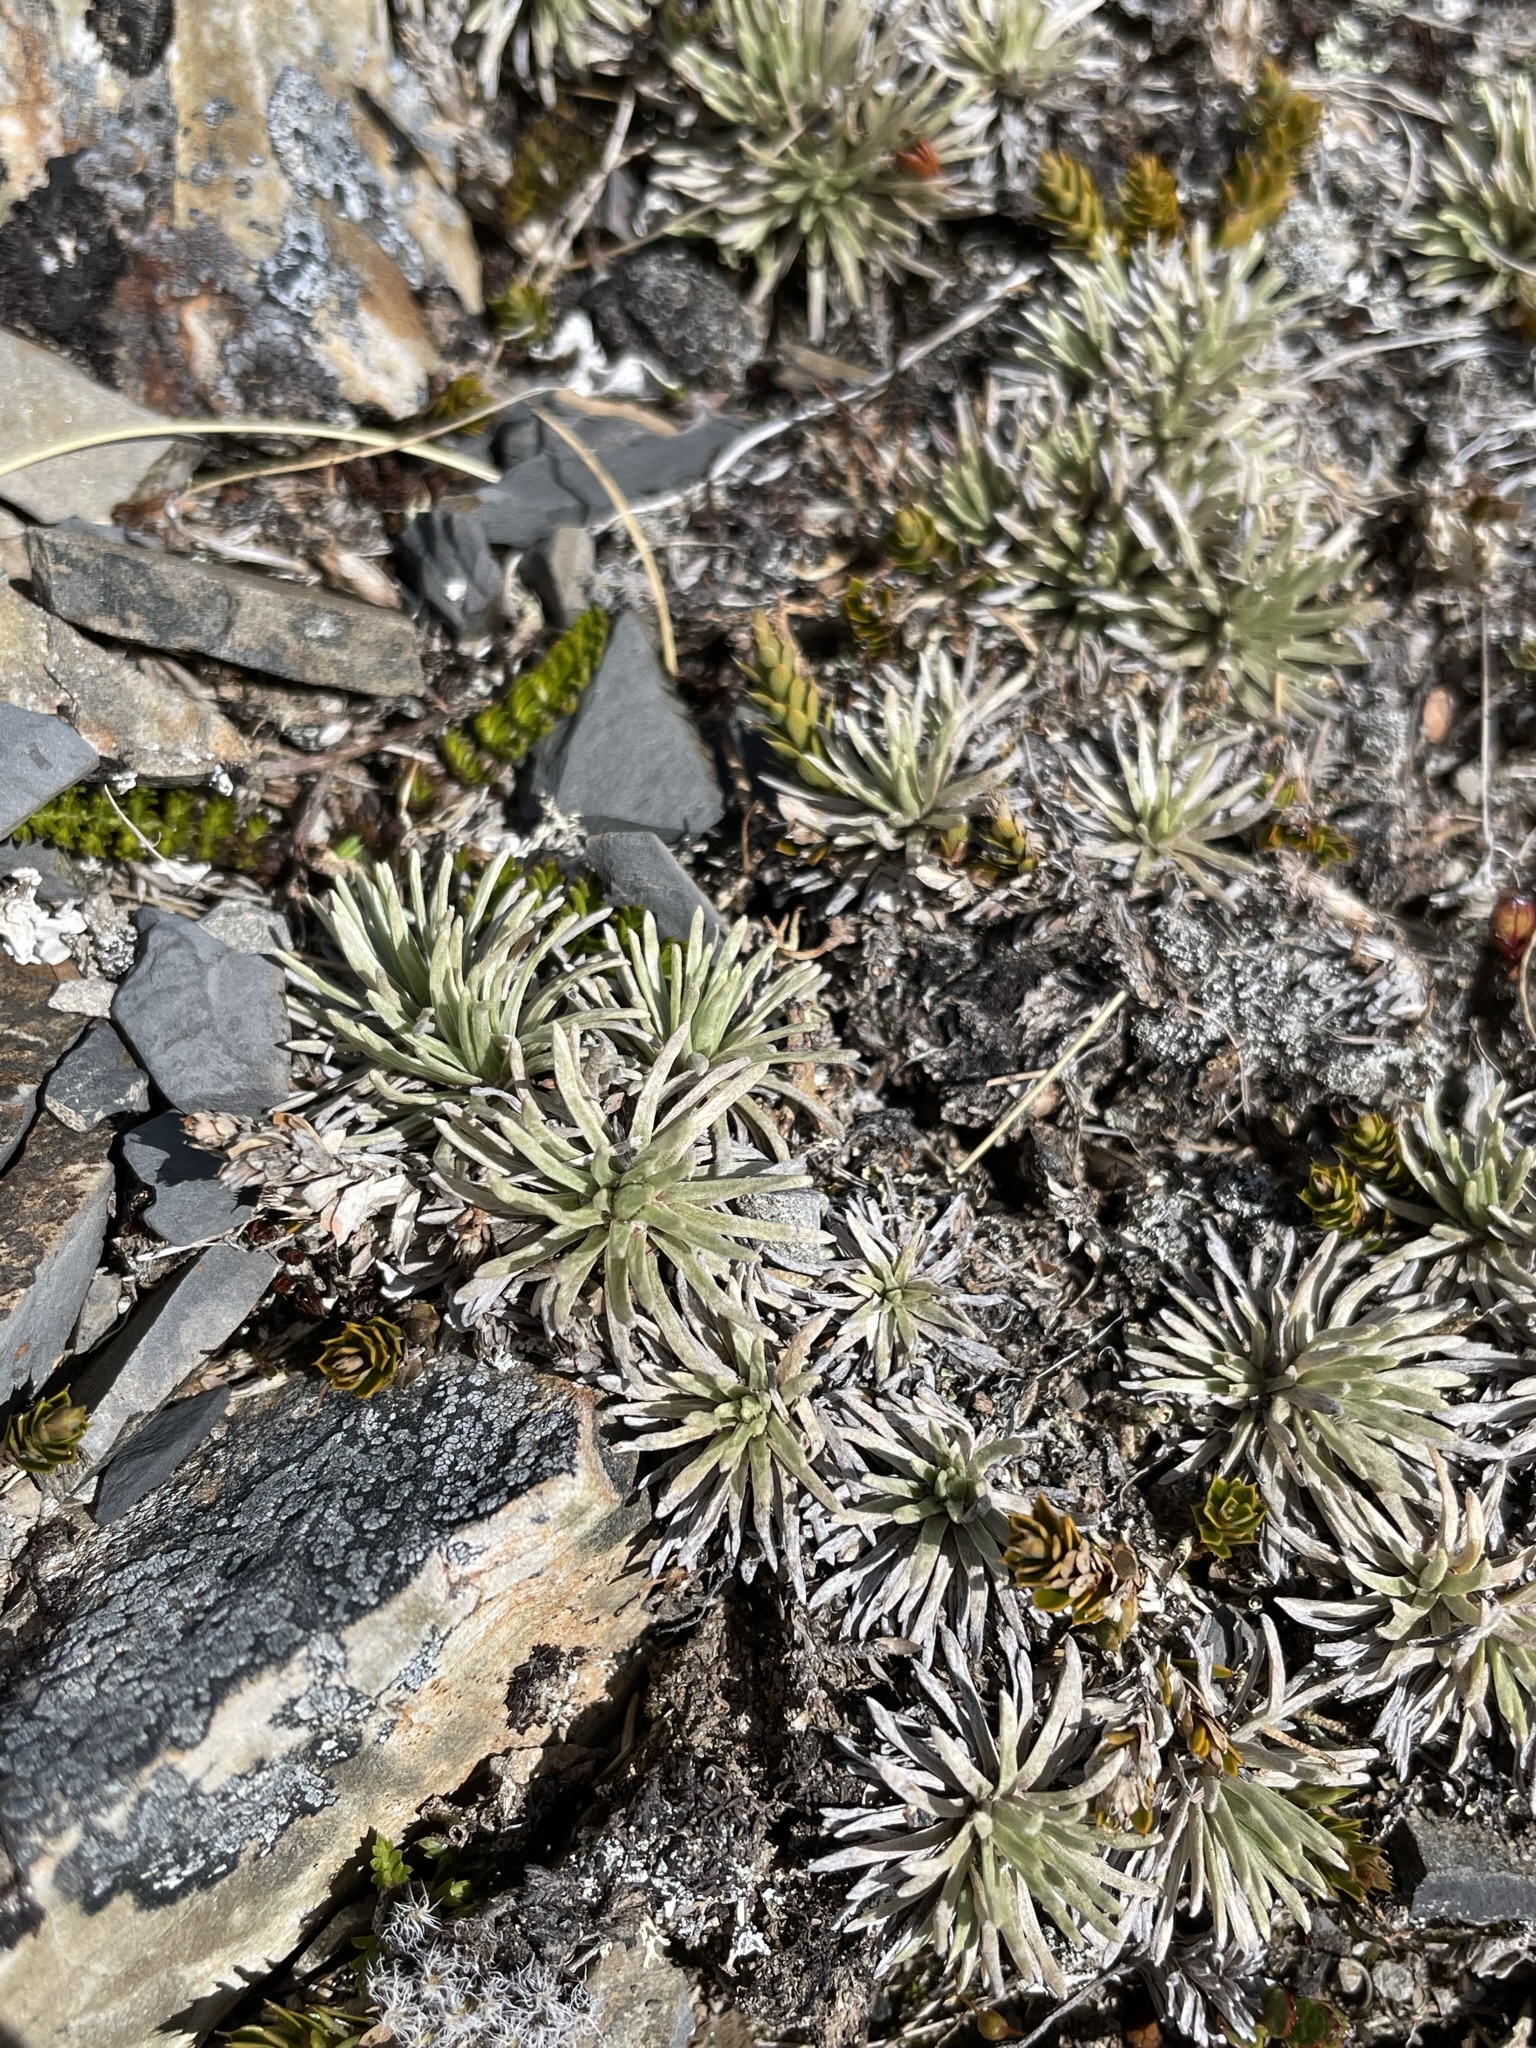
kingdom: Plantae
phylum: Tracheophyta
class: Magnoliopsida
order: Asterales
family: Asteraceae
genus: Celmisia
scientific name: Celmisia sessiliflora
